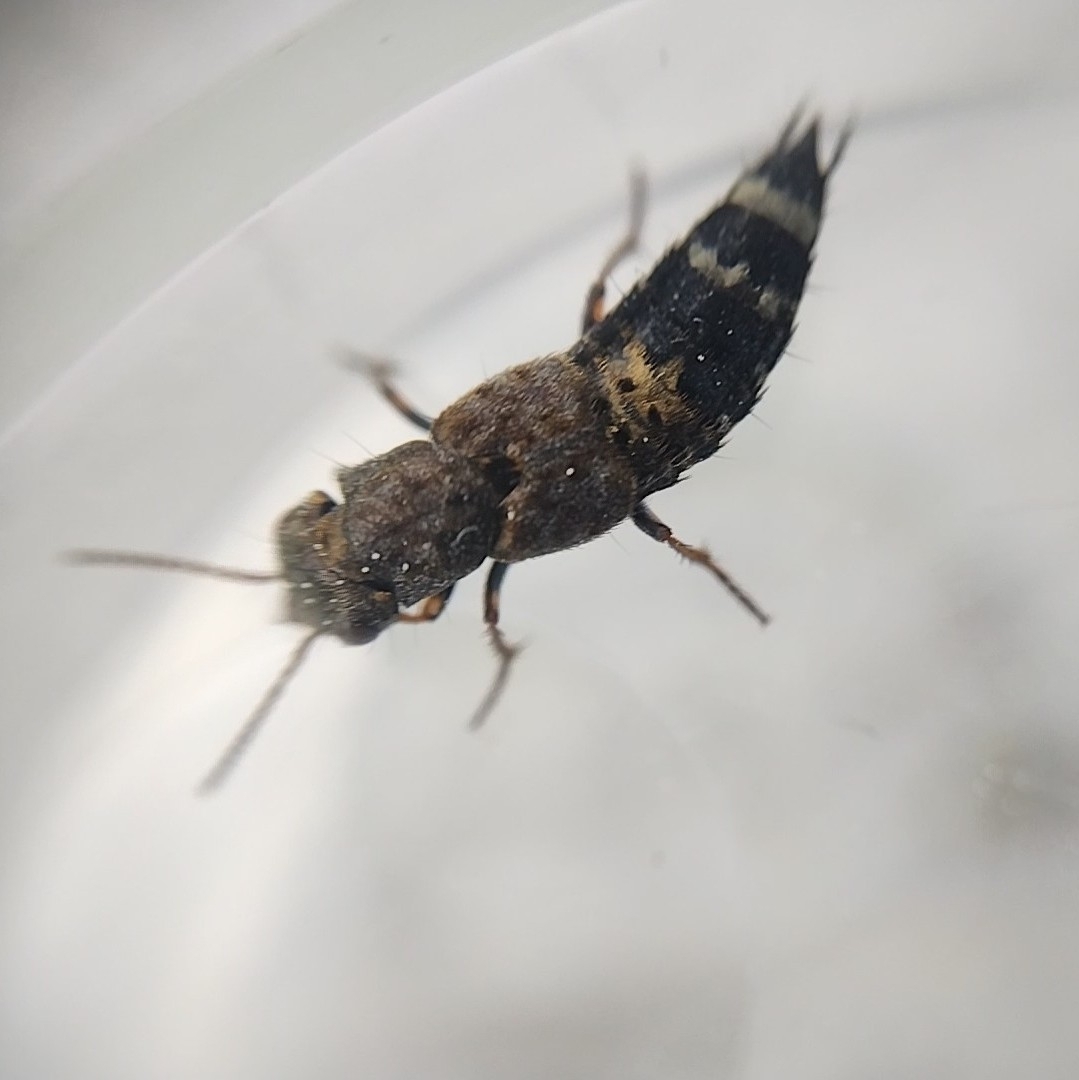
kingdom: Animalia
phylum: Arthropoda
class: Insecta
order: Coleoptera
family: Staphylinidae
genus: Ontholestes
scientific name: Ontholestes haroldi
